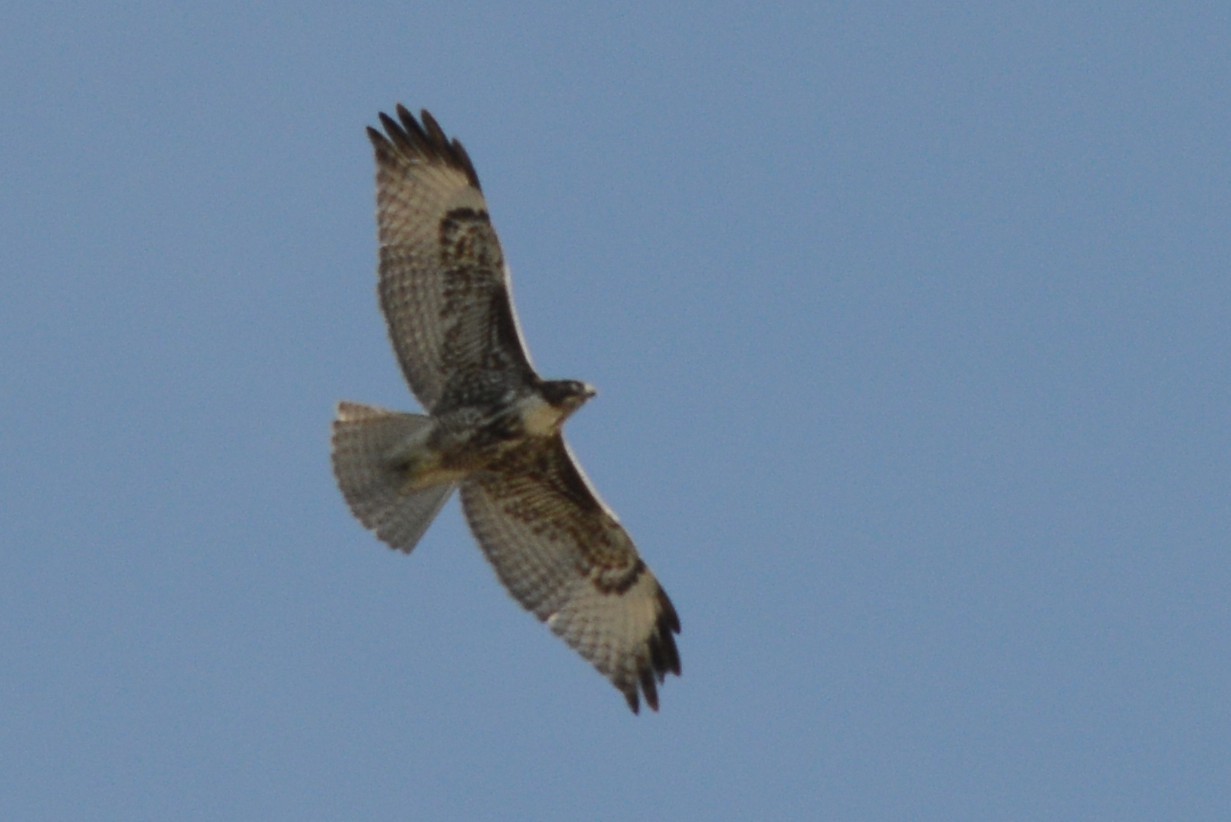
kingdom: Animalia
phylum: Chordata
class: Aves
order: Accipitriformes
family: Accipitridae
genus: Buteo
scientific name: Buteo jamaicensis
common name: Red-tailed hawk
